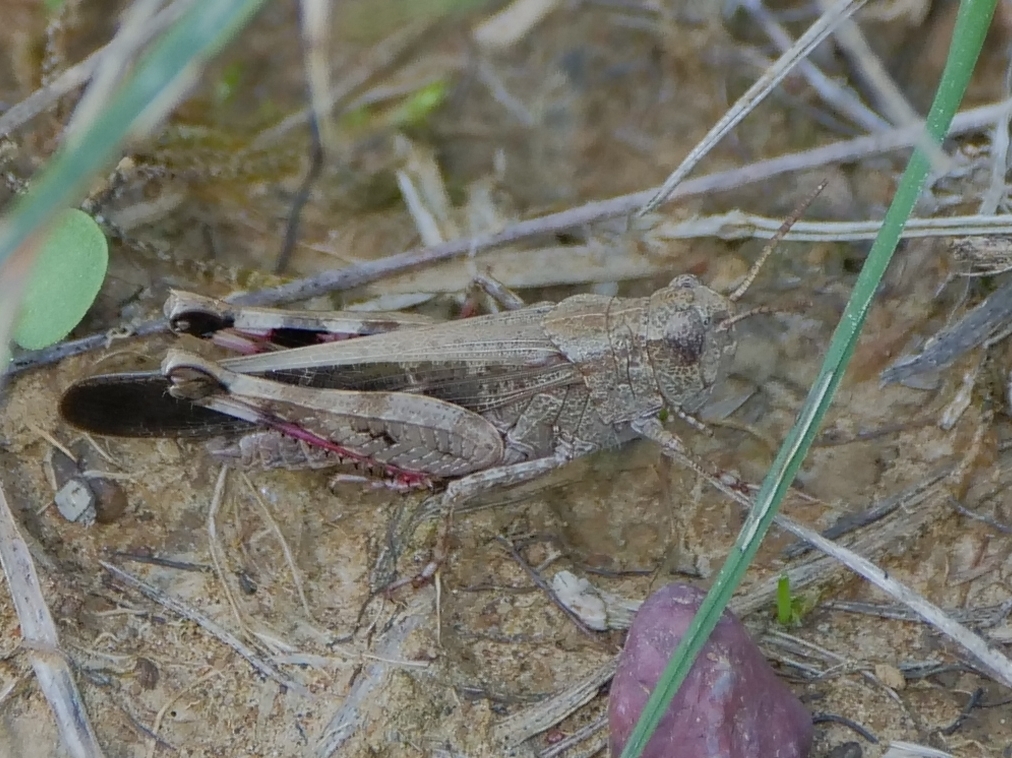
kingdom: Animalia
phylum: Arthropoda
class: Insecta
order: Orthoptera
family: Acrididae
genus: Aiolopus
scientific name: Aiolopus strepens
